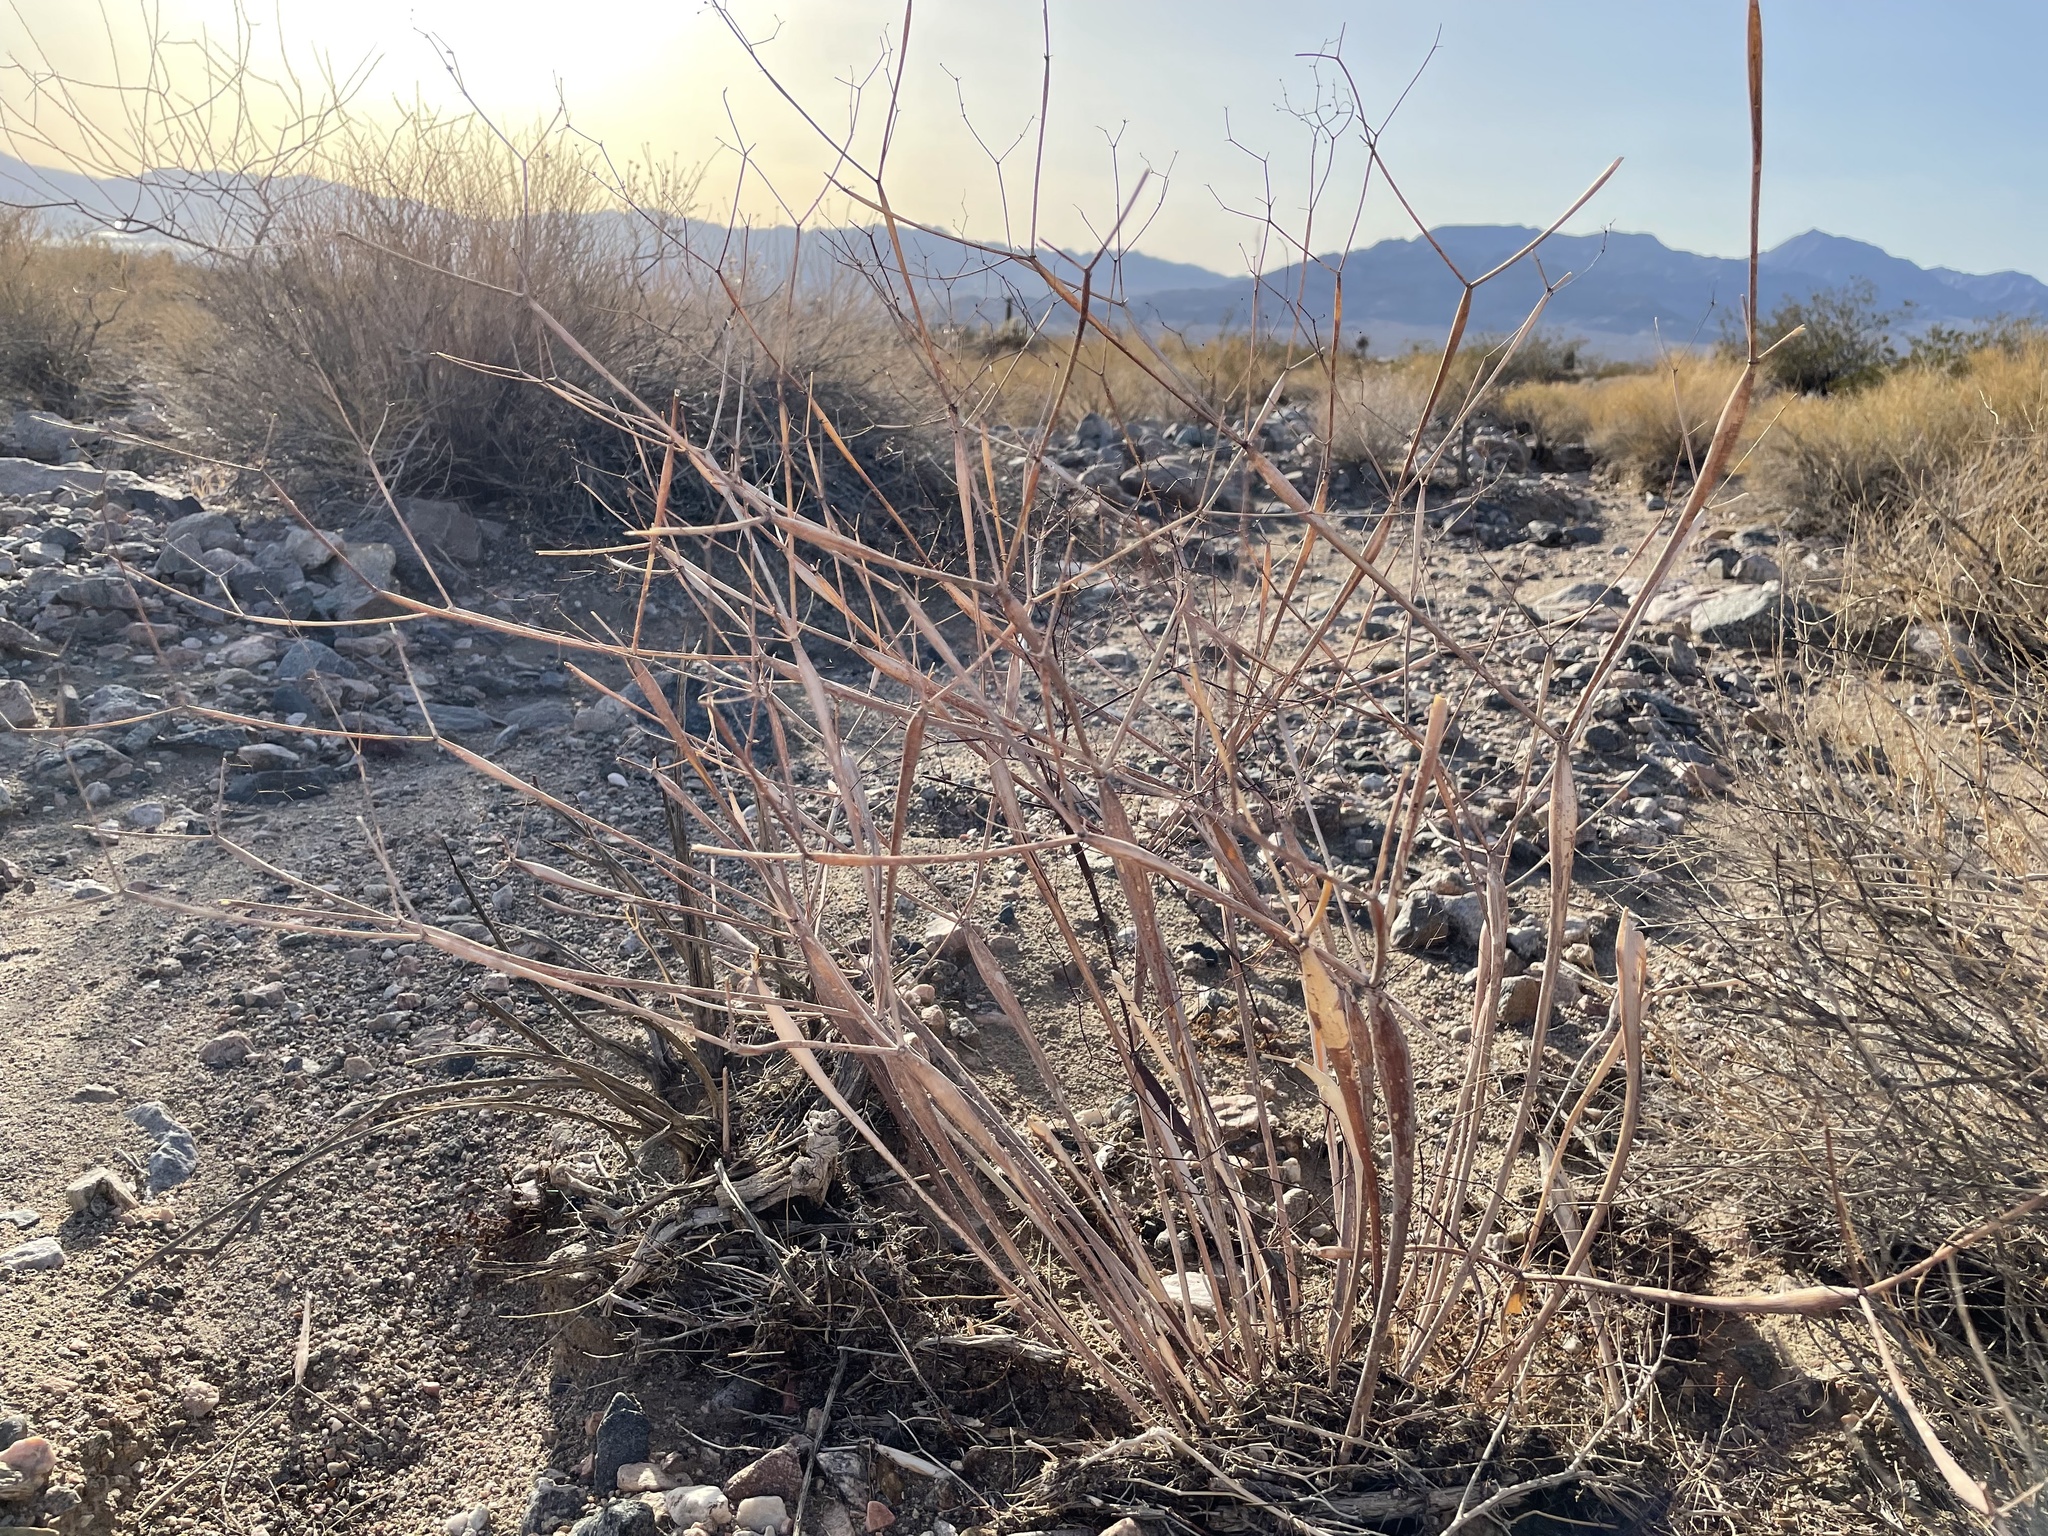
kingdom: Plantae
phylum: Tracheophyta
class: Magnoliopsida
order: Caryophyllales
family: Polygonaceae
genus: Eriogonum
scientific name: Eriogonum inflatum
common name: Desert trumpet
